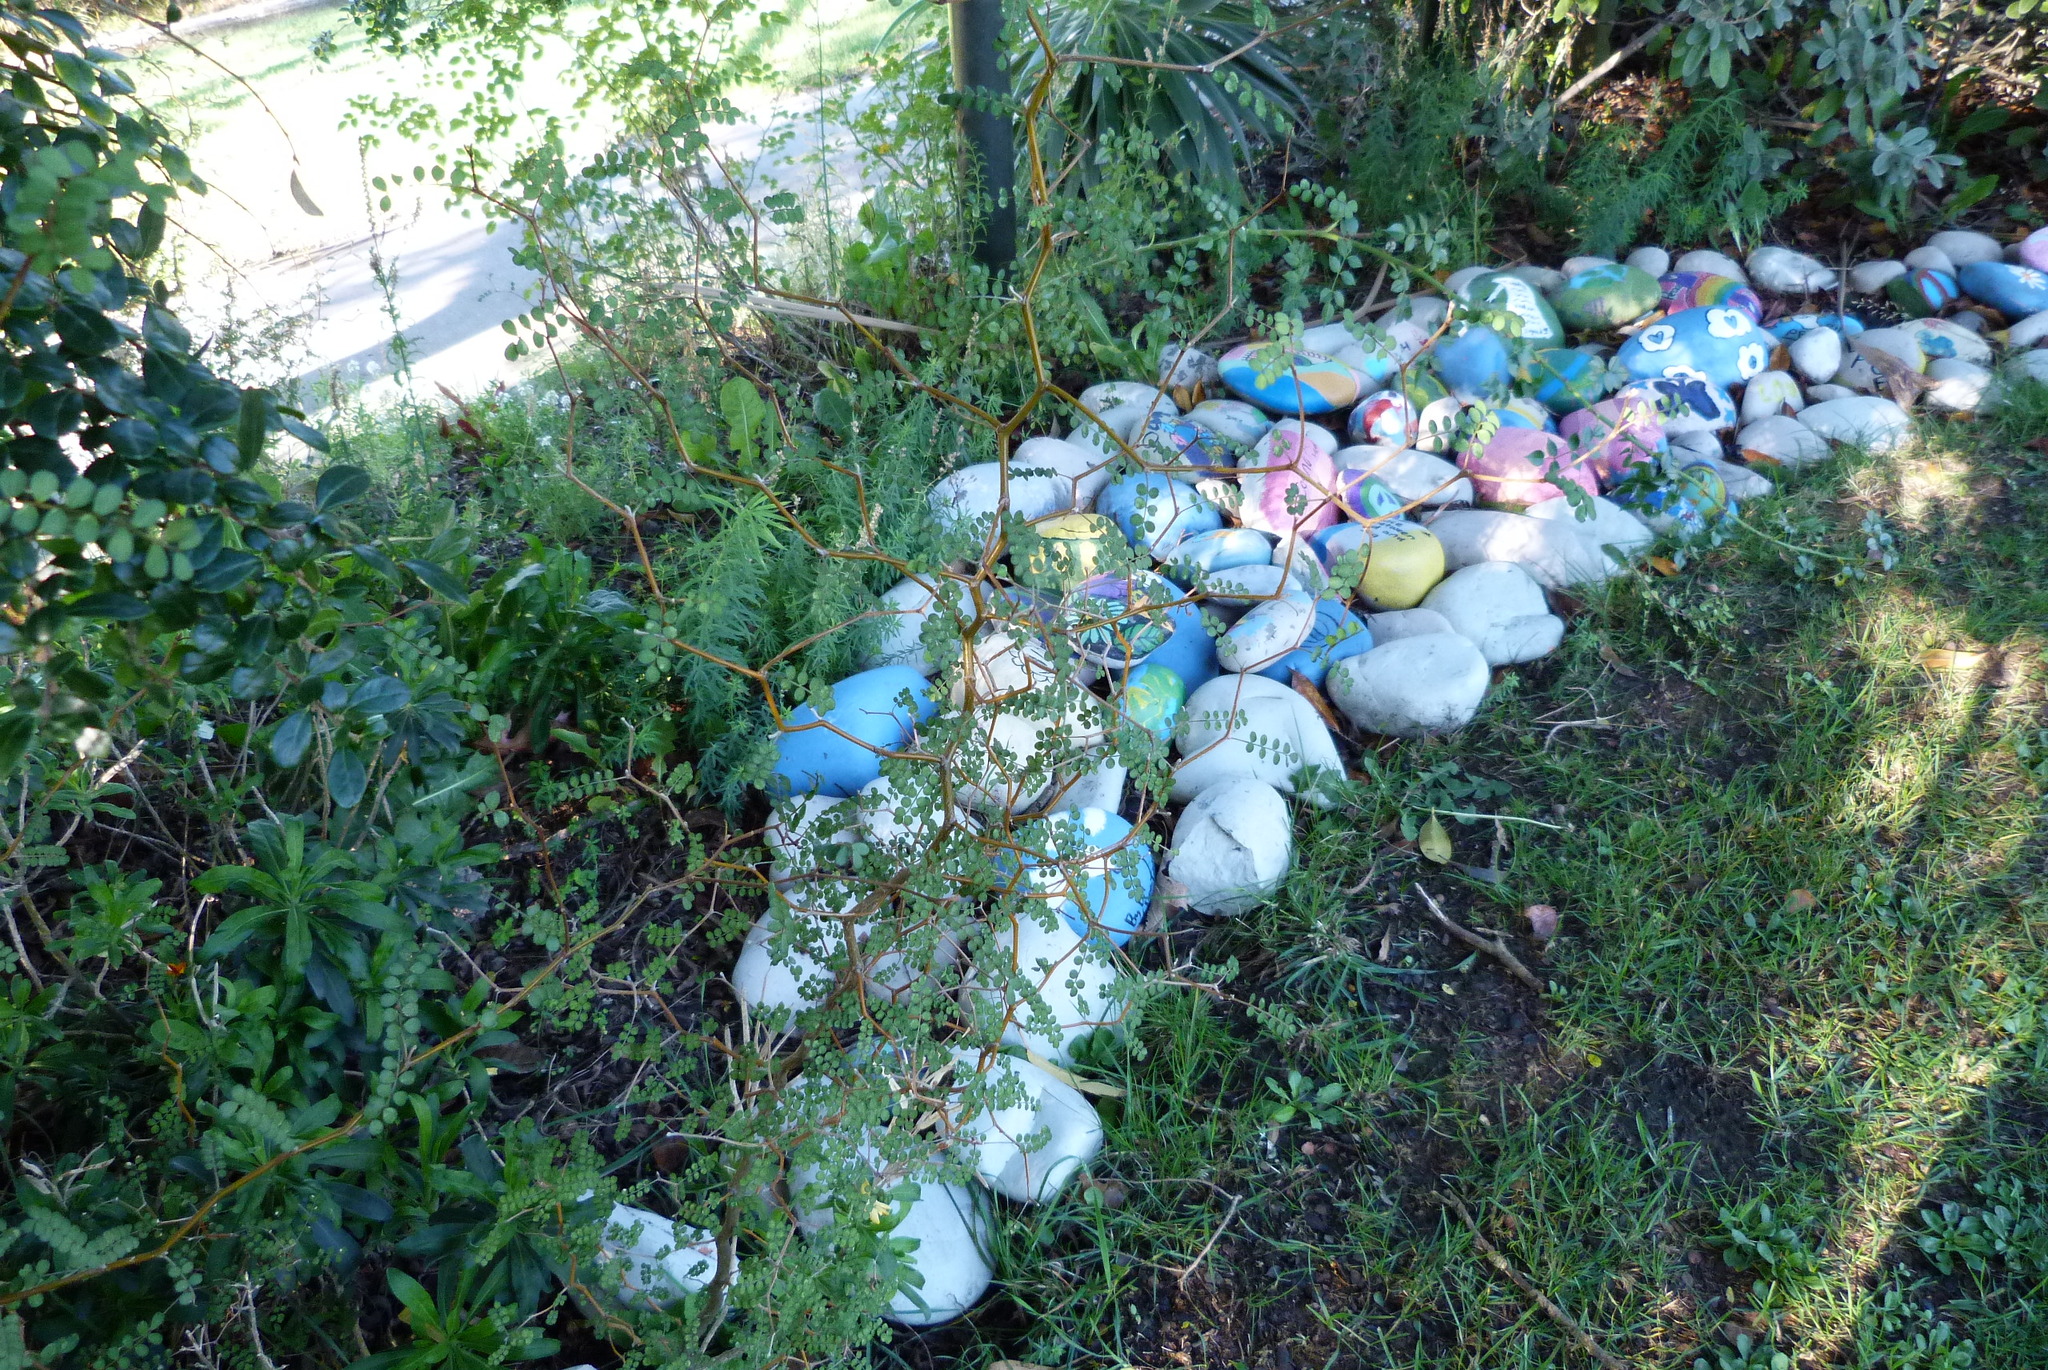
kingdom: Plantae
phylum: Tracheophyta
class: Magnoliopsida
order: Fabales
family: Fabaceae
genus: Sophora
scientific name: Sophora microphylla
